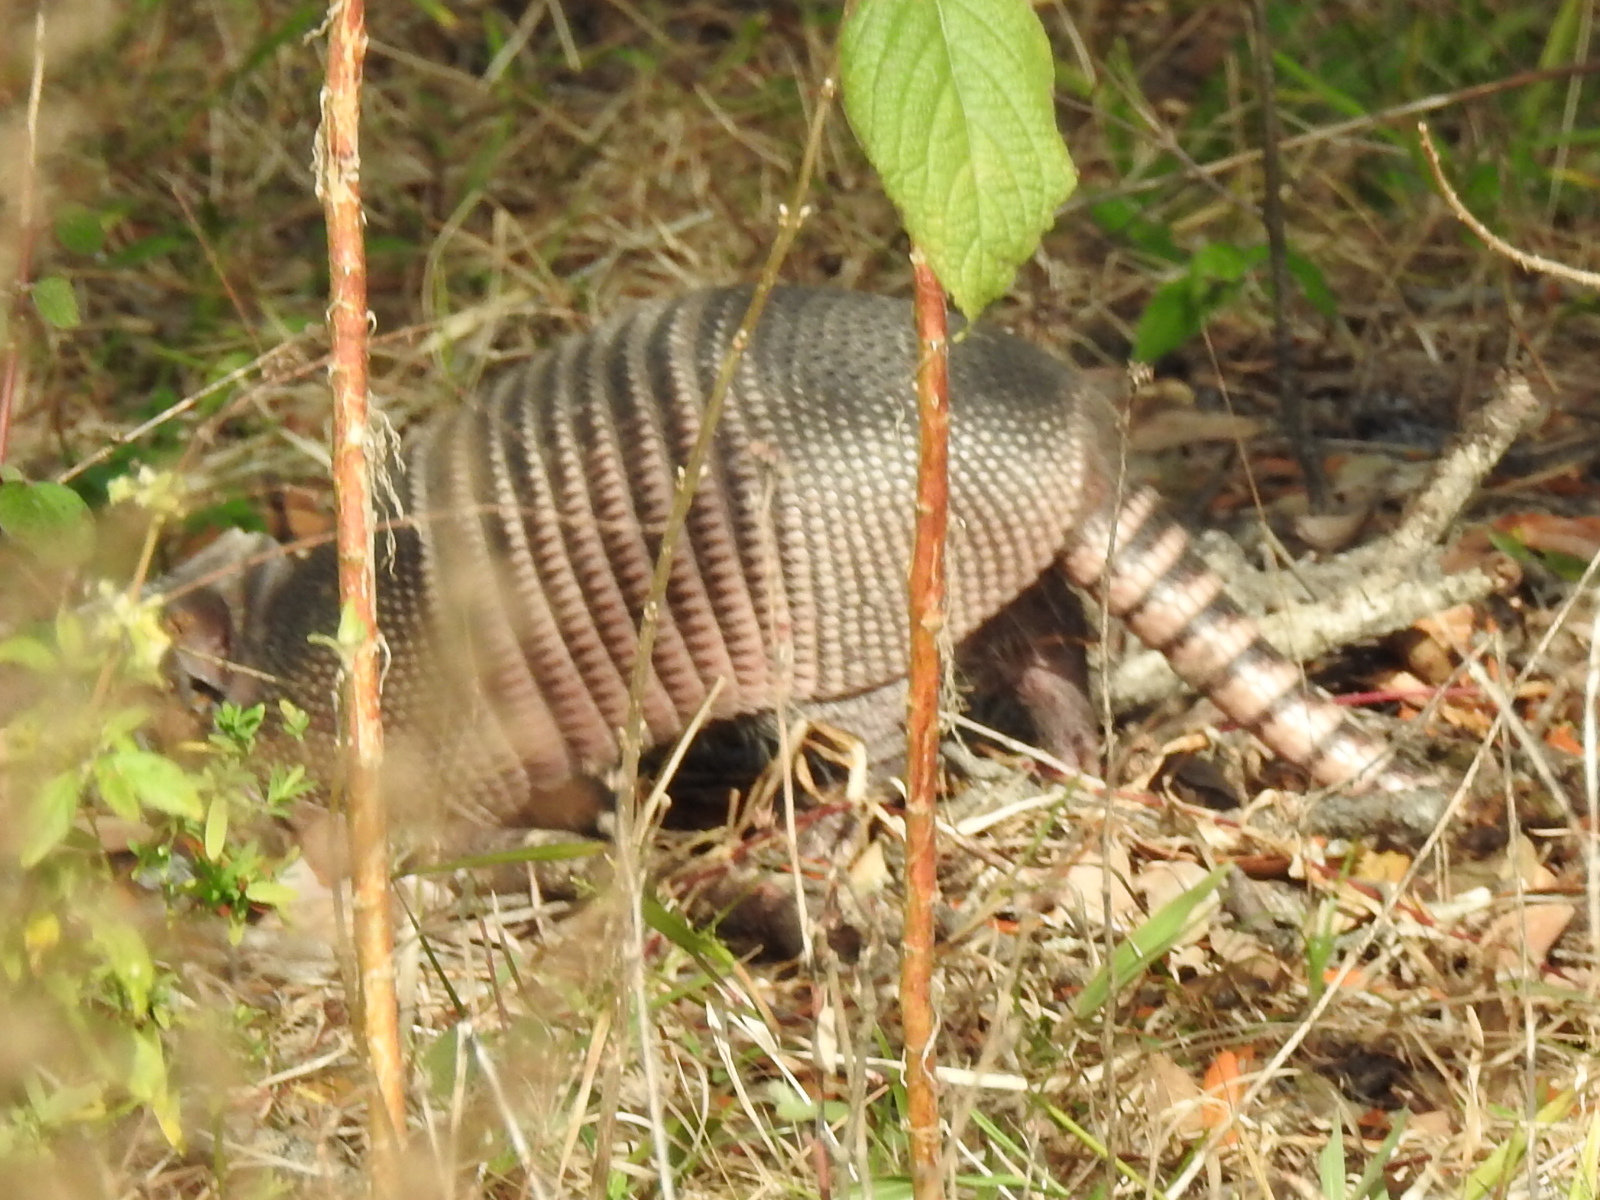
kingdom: Animalia
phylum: Chordata
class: Mammalia
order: Cingulata
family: Dasypodidae
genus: Dasypus
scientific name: Dasypus novemcinctus
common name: Nine-banded armadillo
